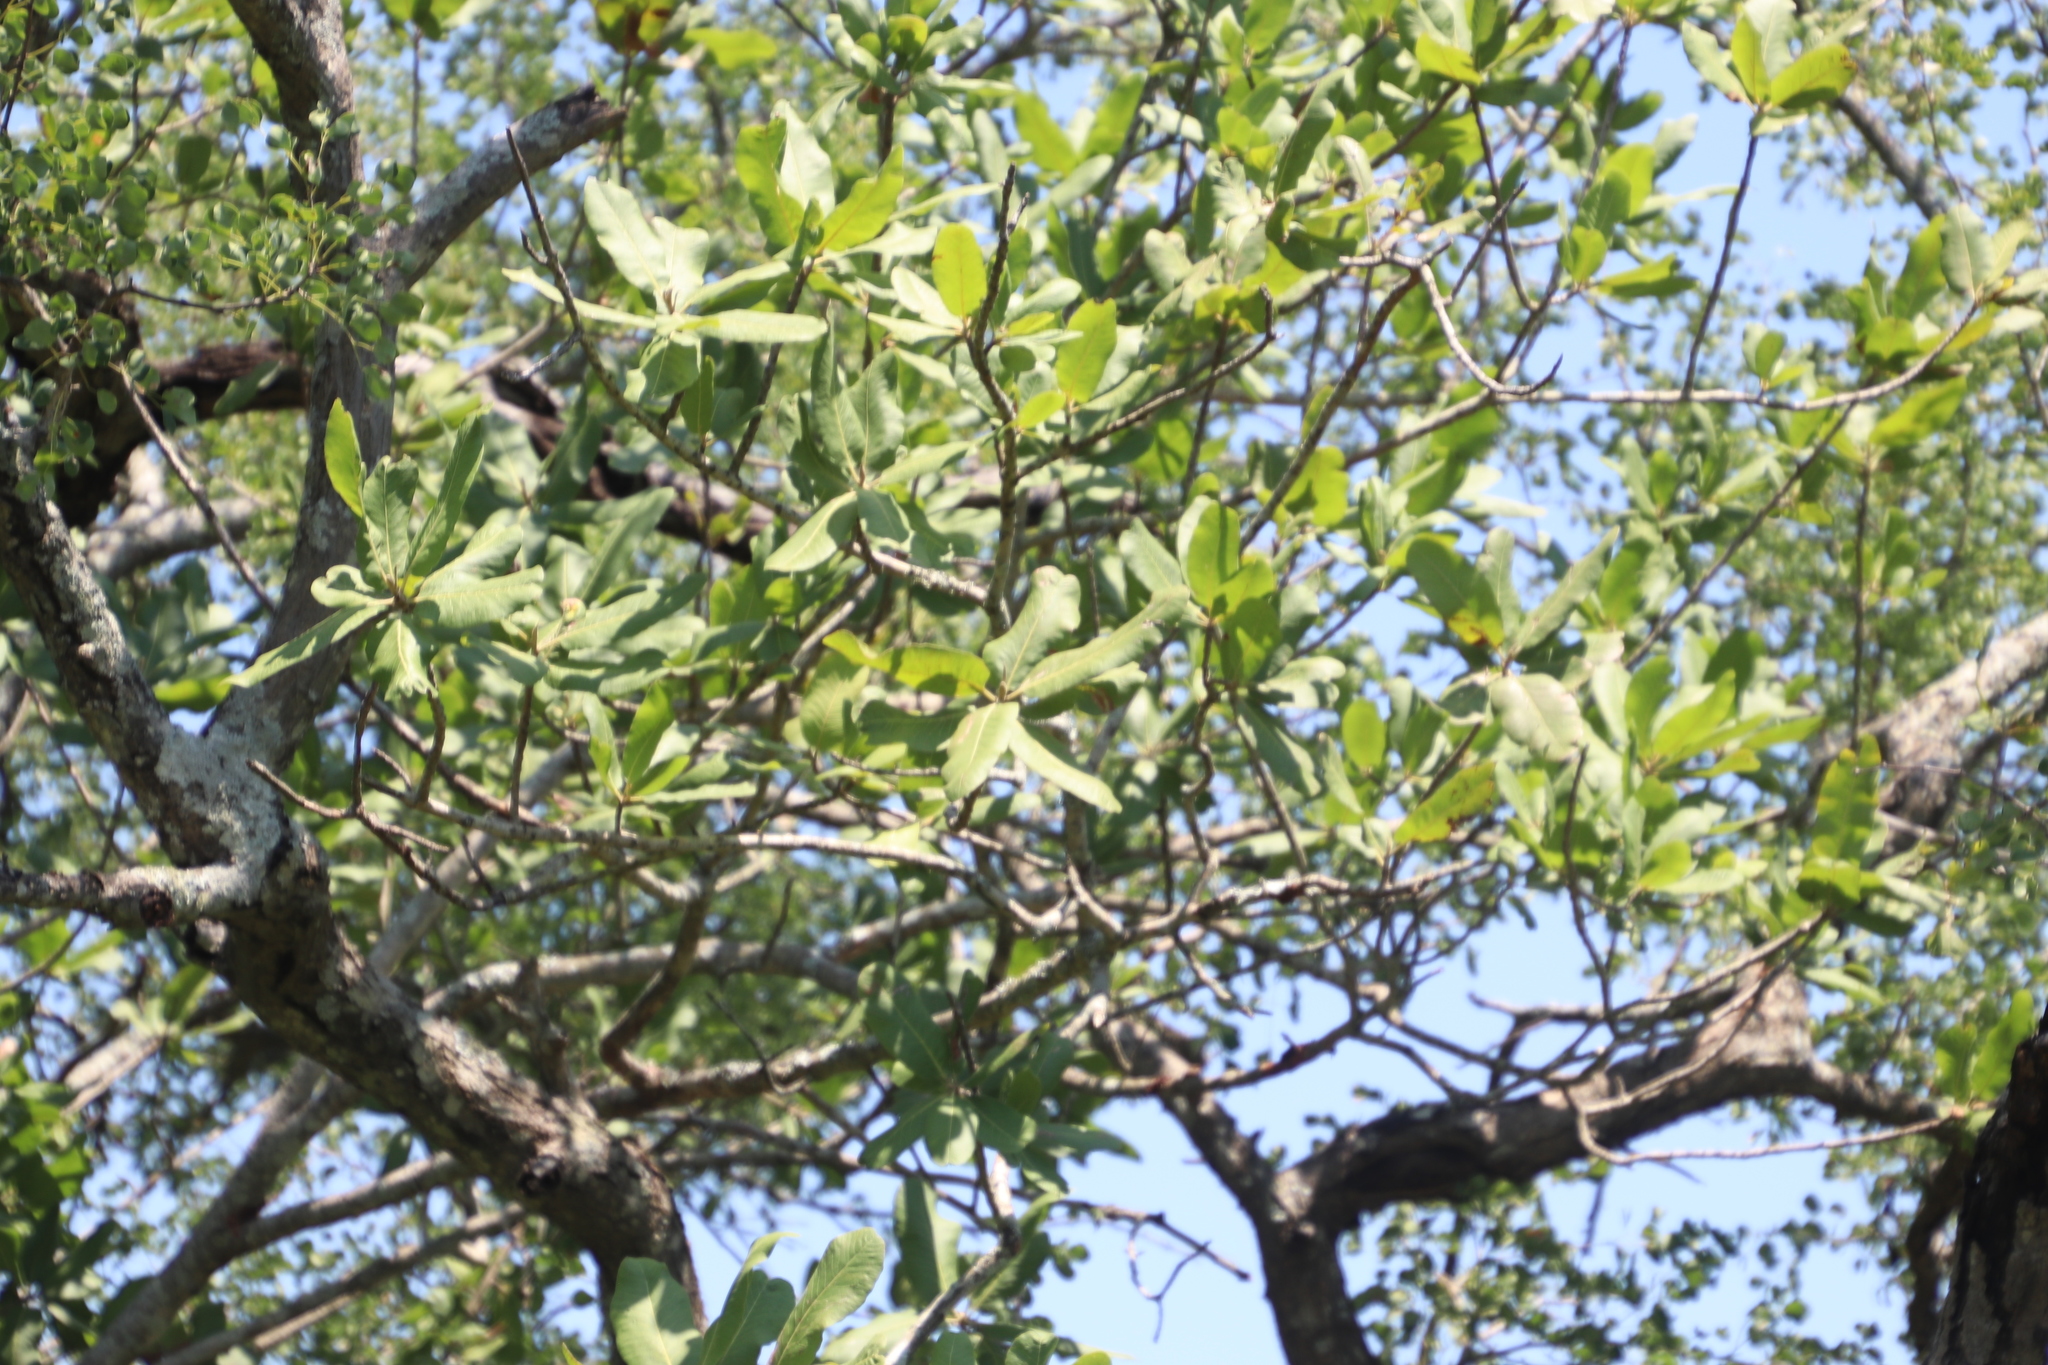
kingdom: Plantae
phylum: Tracheophyta
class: Magnoliopsida
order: Sapindales
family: Sapindaceae
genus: Pappea
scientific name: Pappea capensis
